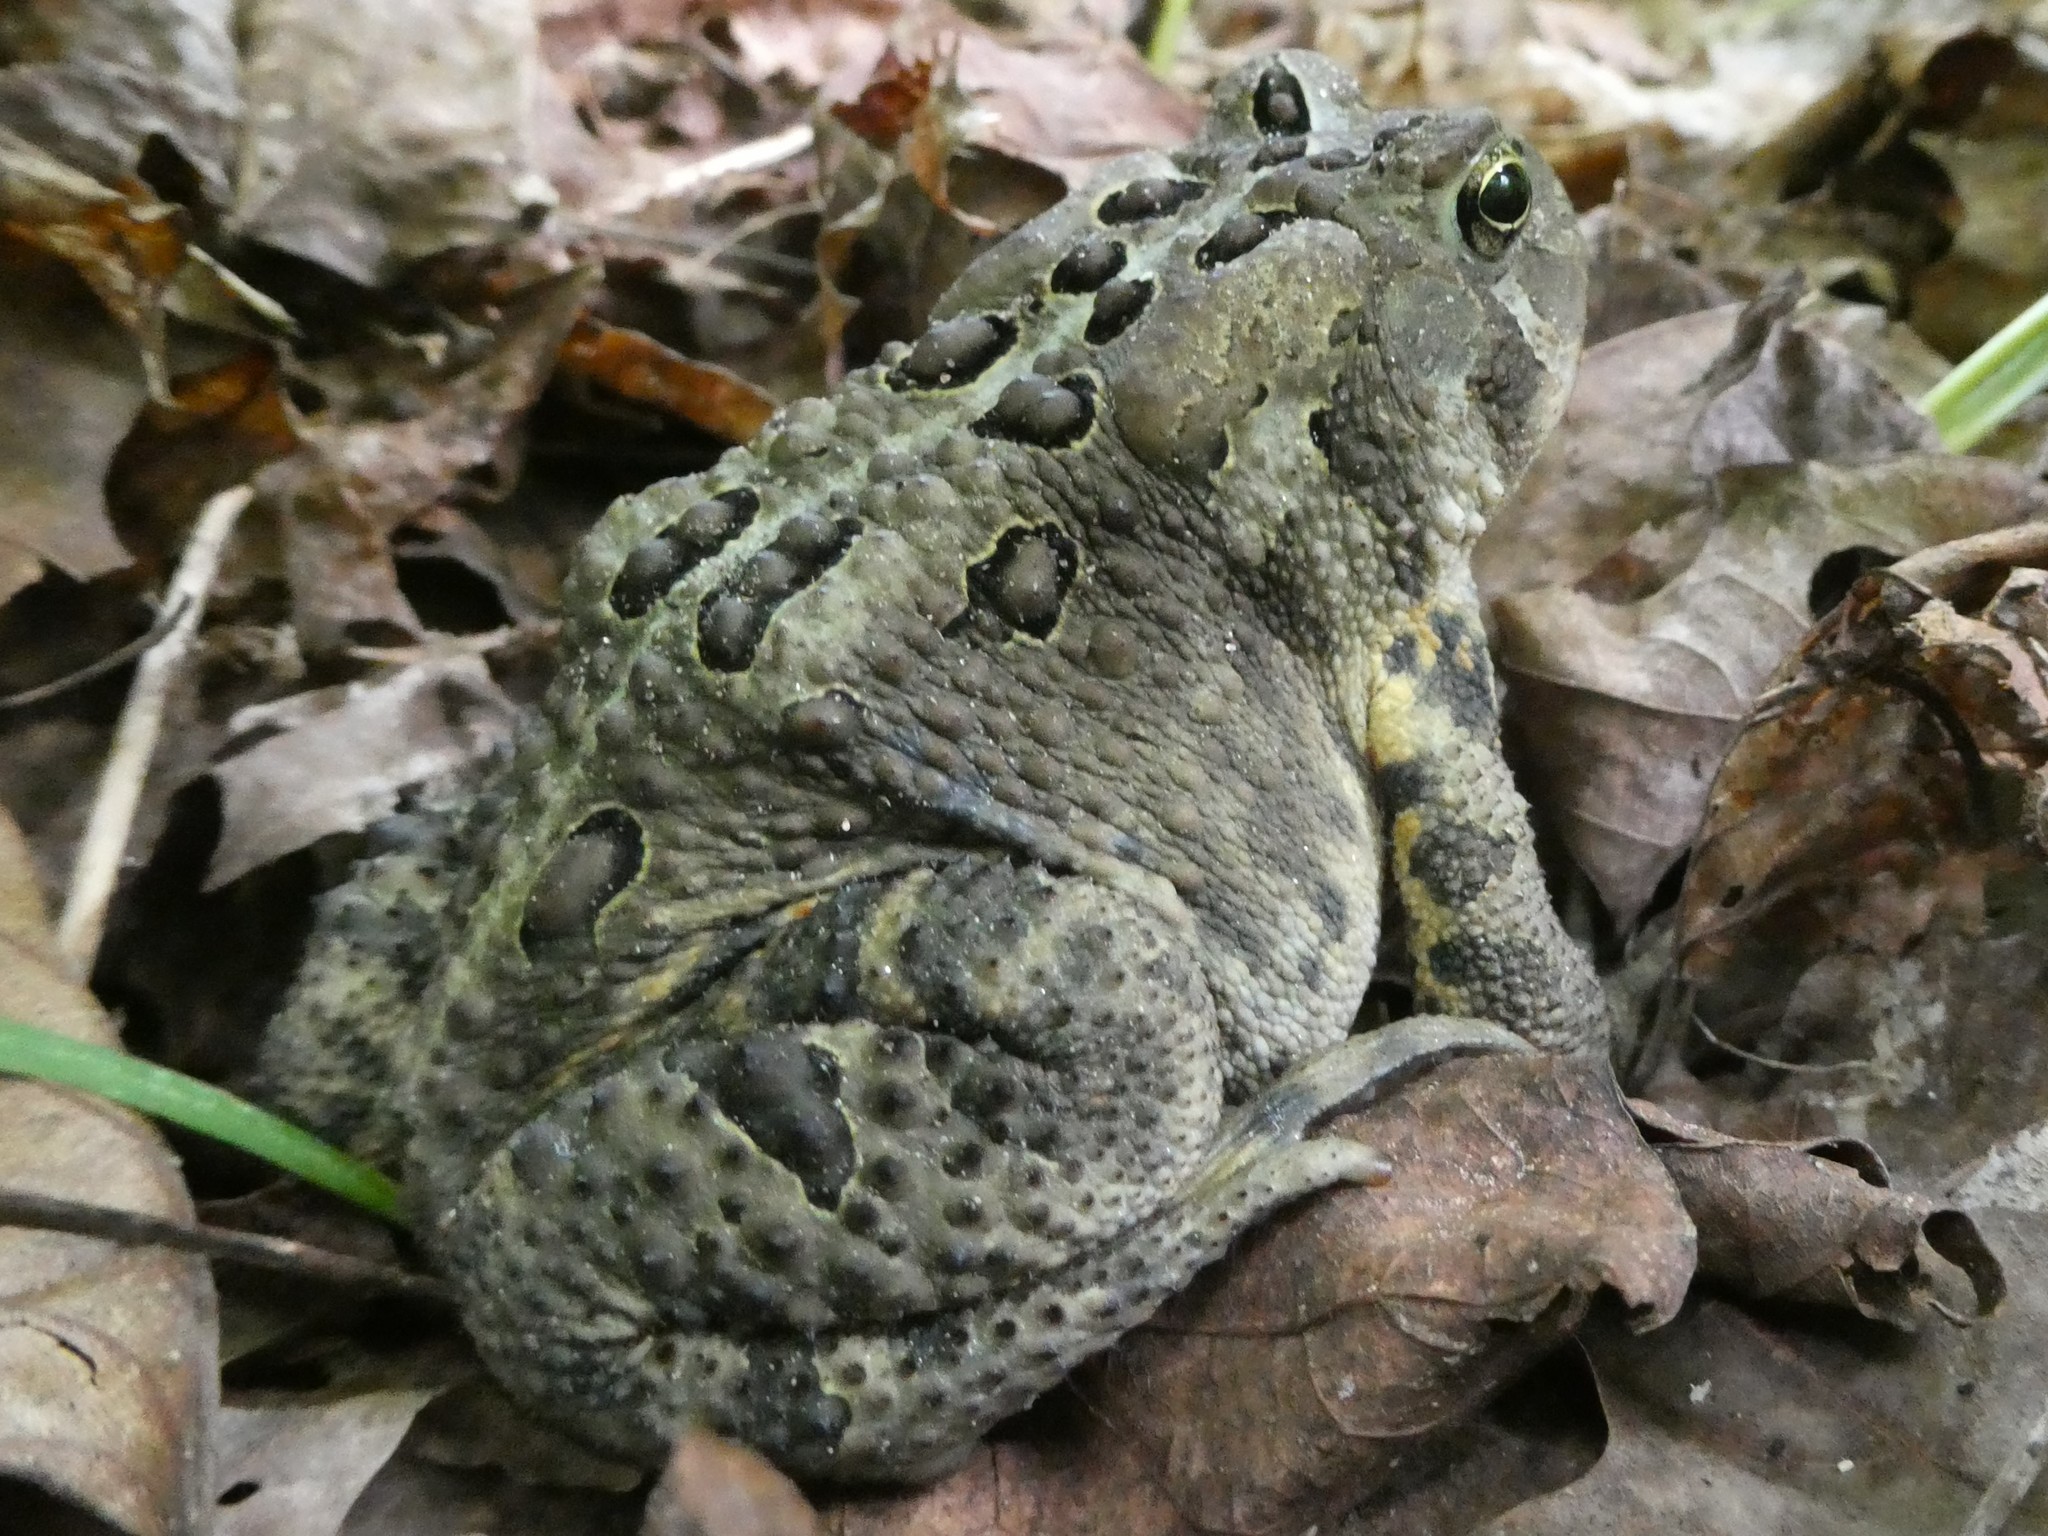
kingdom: Animalia
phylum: Chordata
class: Amphibia
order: Anura
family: Bufonidae
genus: Anaxyrus
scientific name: Anaxyrus americanus
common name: American toad
